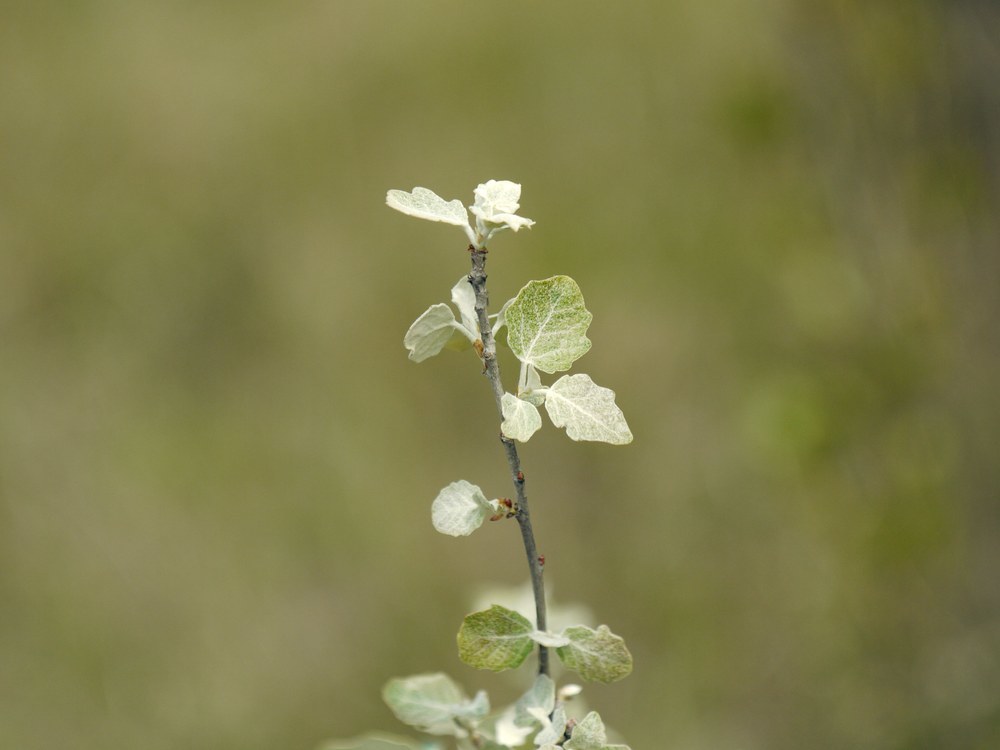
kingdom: Plantae
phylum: Tracheophyta
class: Magnoliopsida
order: Malpighiales
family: Salicaceae
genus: Populus
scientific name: Populus canescens
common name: Gray poplar
